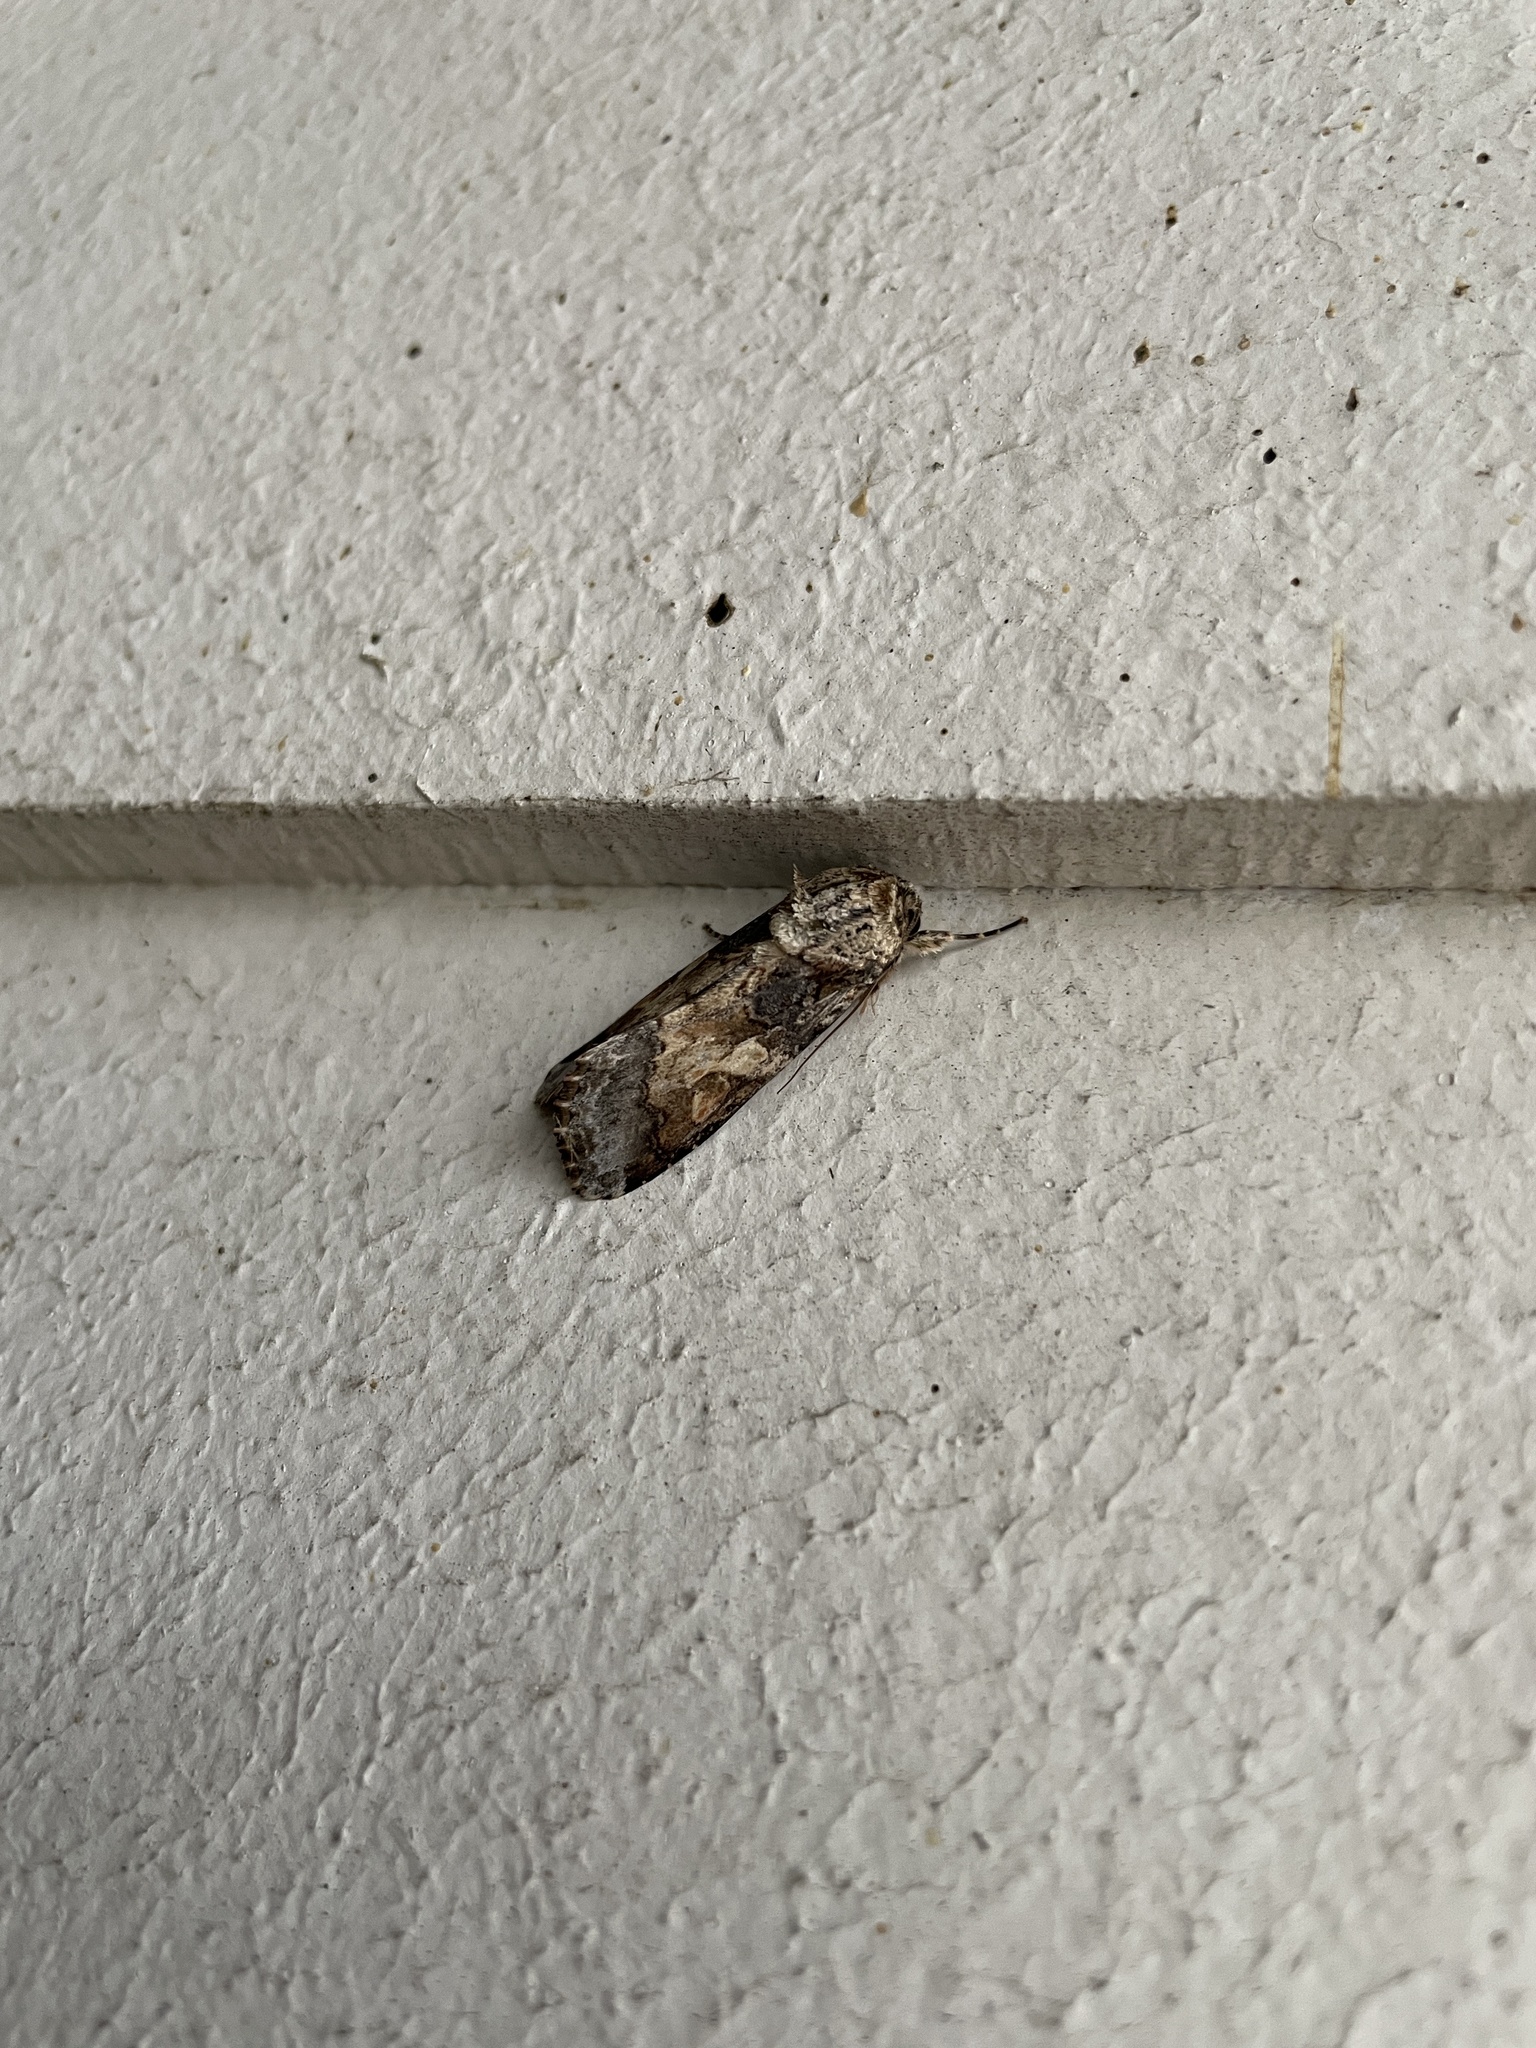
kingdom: Animalia
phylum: Arthropoda
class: Insecta
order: Lepidoptera
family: Noctuidae
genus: Spodoptera
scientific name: Spodoptera latifascia
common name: Velvet armyworm moth
